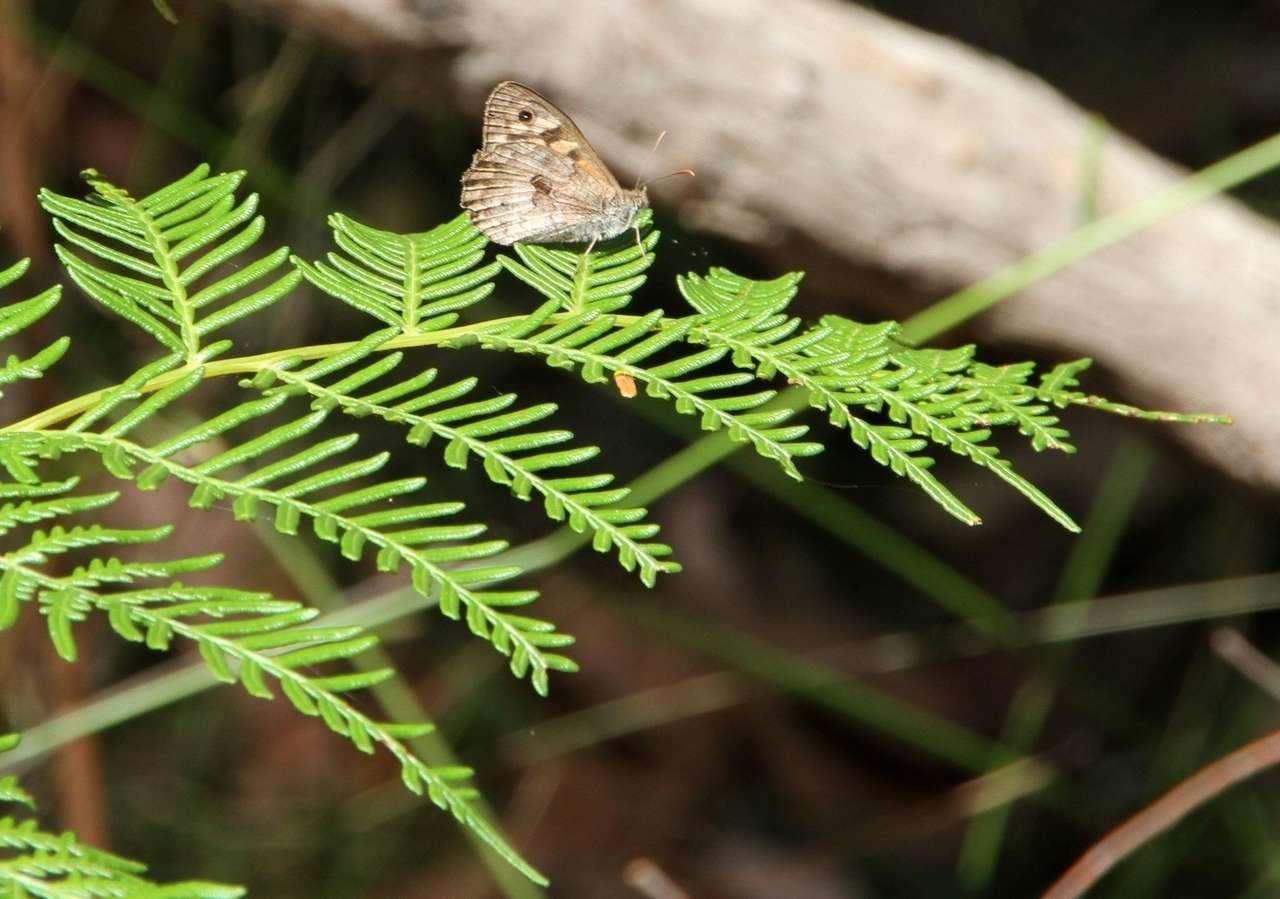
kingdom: Plantae
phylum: Tracheophyta
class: Polypodiopsida
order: Polypodiales
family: Dennstaedtiaceae
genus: Pteridium
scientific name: Pteridium esculentum
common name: Bracken fern
